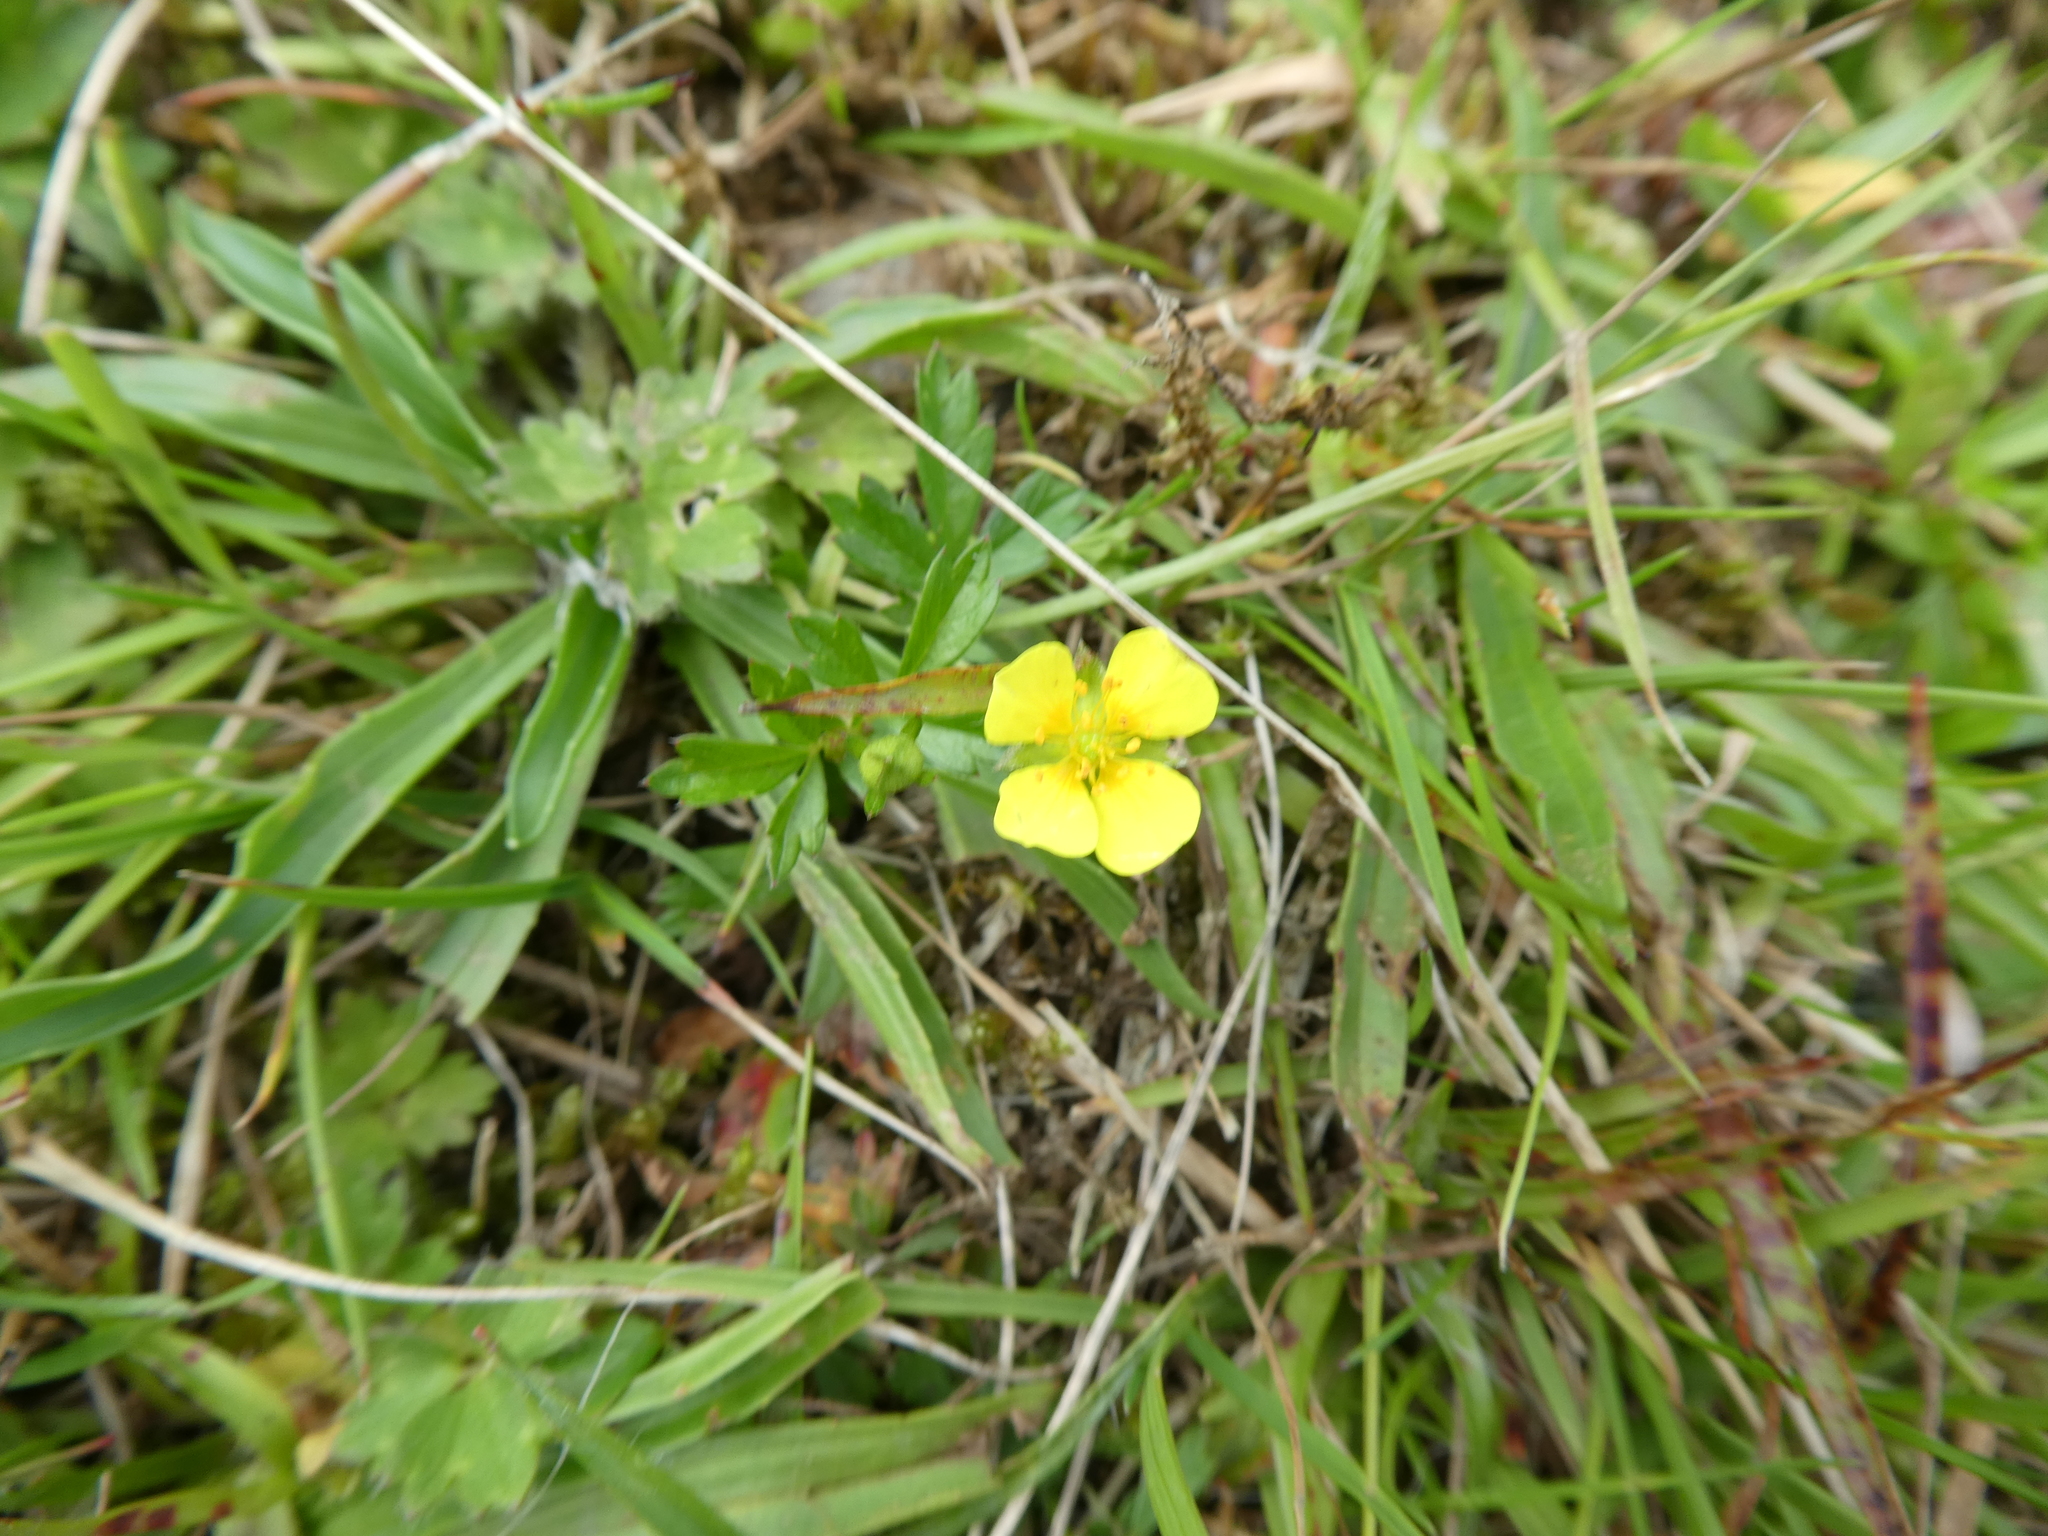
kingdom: Plantae
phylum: Tracheophyta
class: Magnoliopsida
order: Rosales
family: Rosaceae
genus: Potentilla
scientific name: Potentilla erecta
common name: Tormentil
